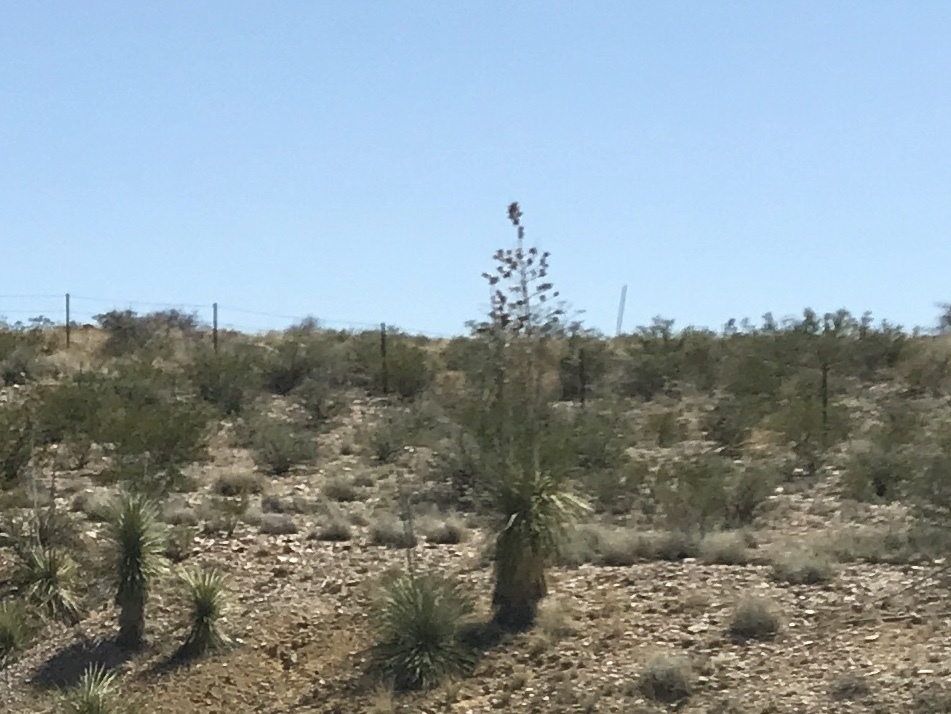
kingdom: Plantae
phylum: Tracheophyta
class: Liliopsida
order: Asparagales
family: Asparagaceae
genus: Yucca
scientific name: Yucca elata
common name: Palmella
